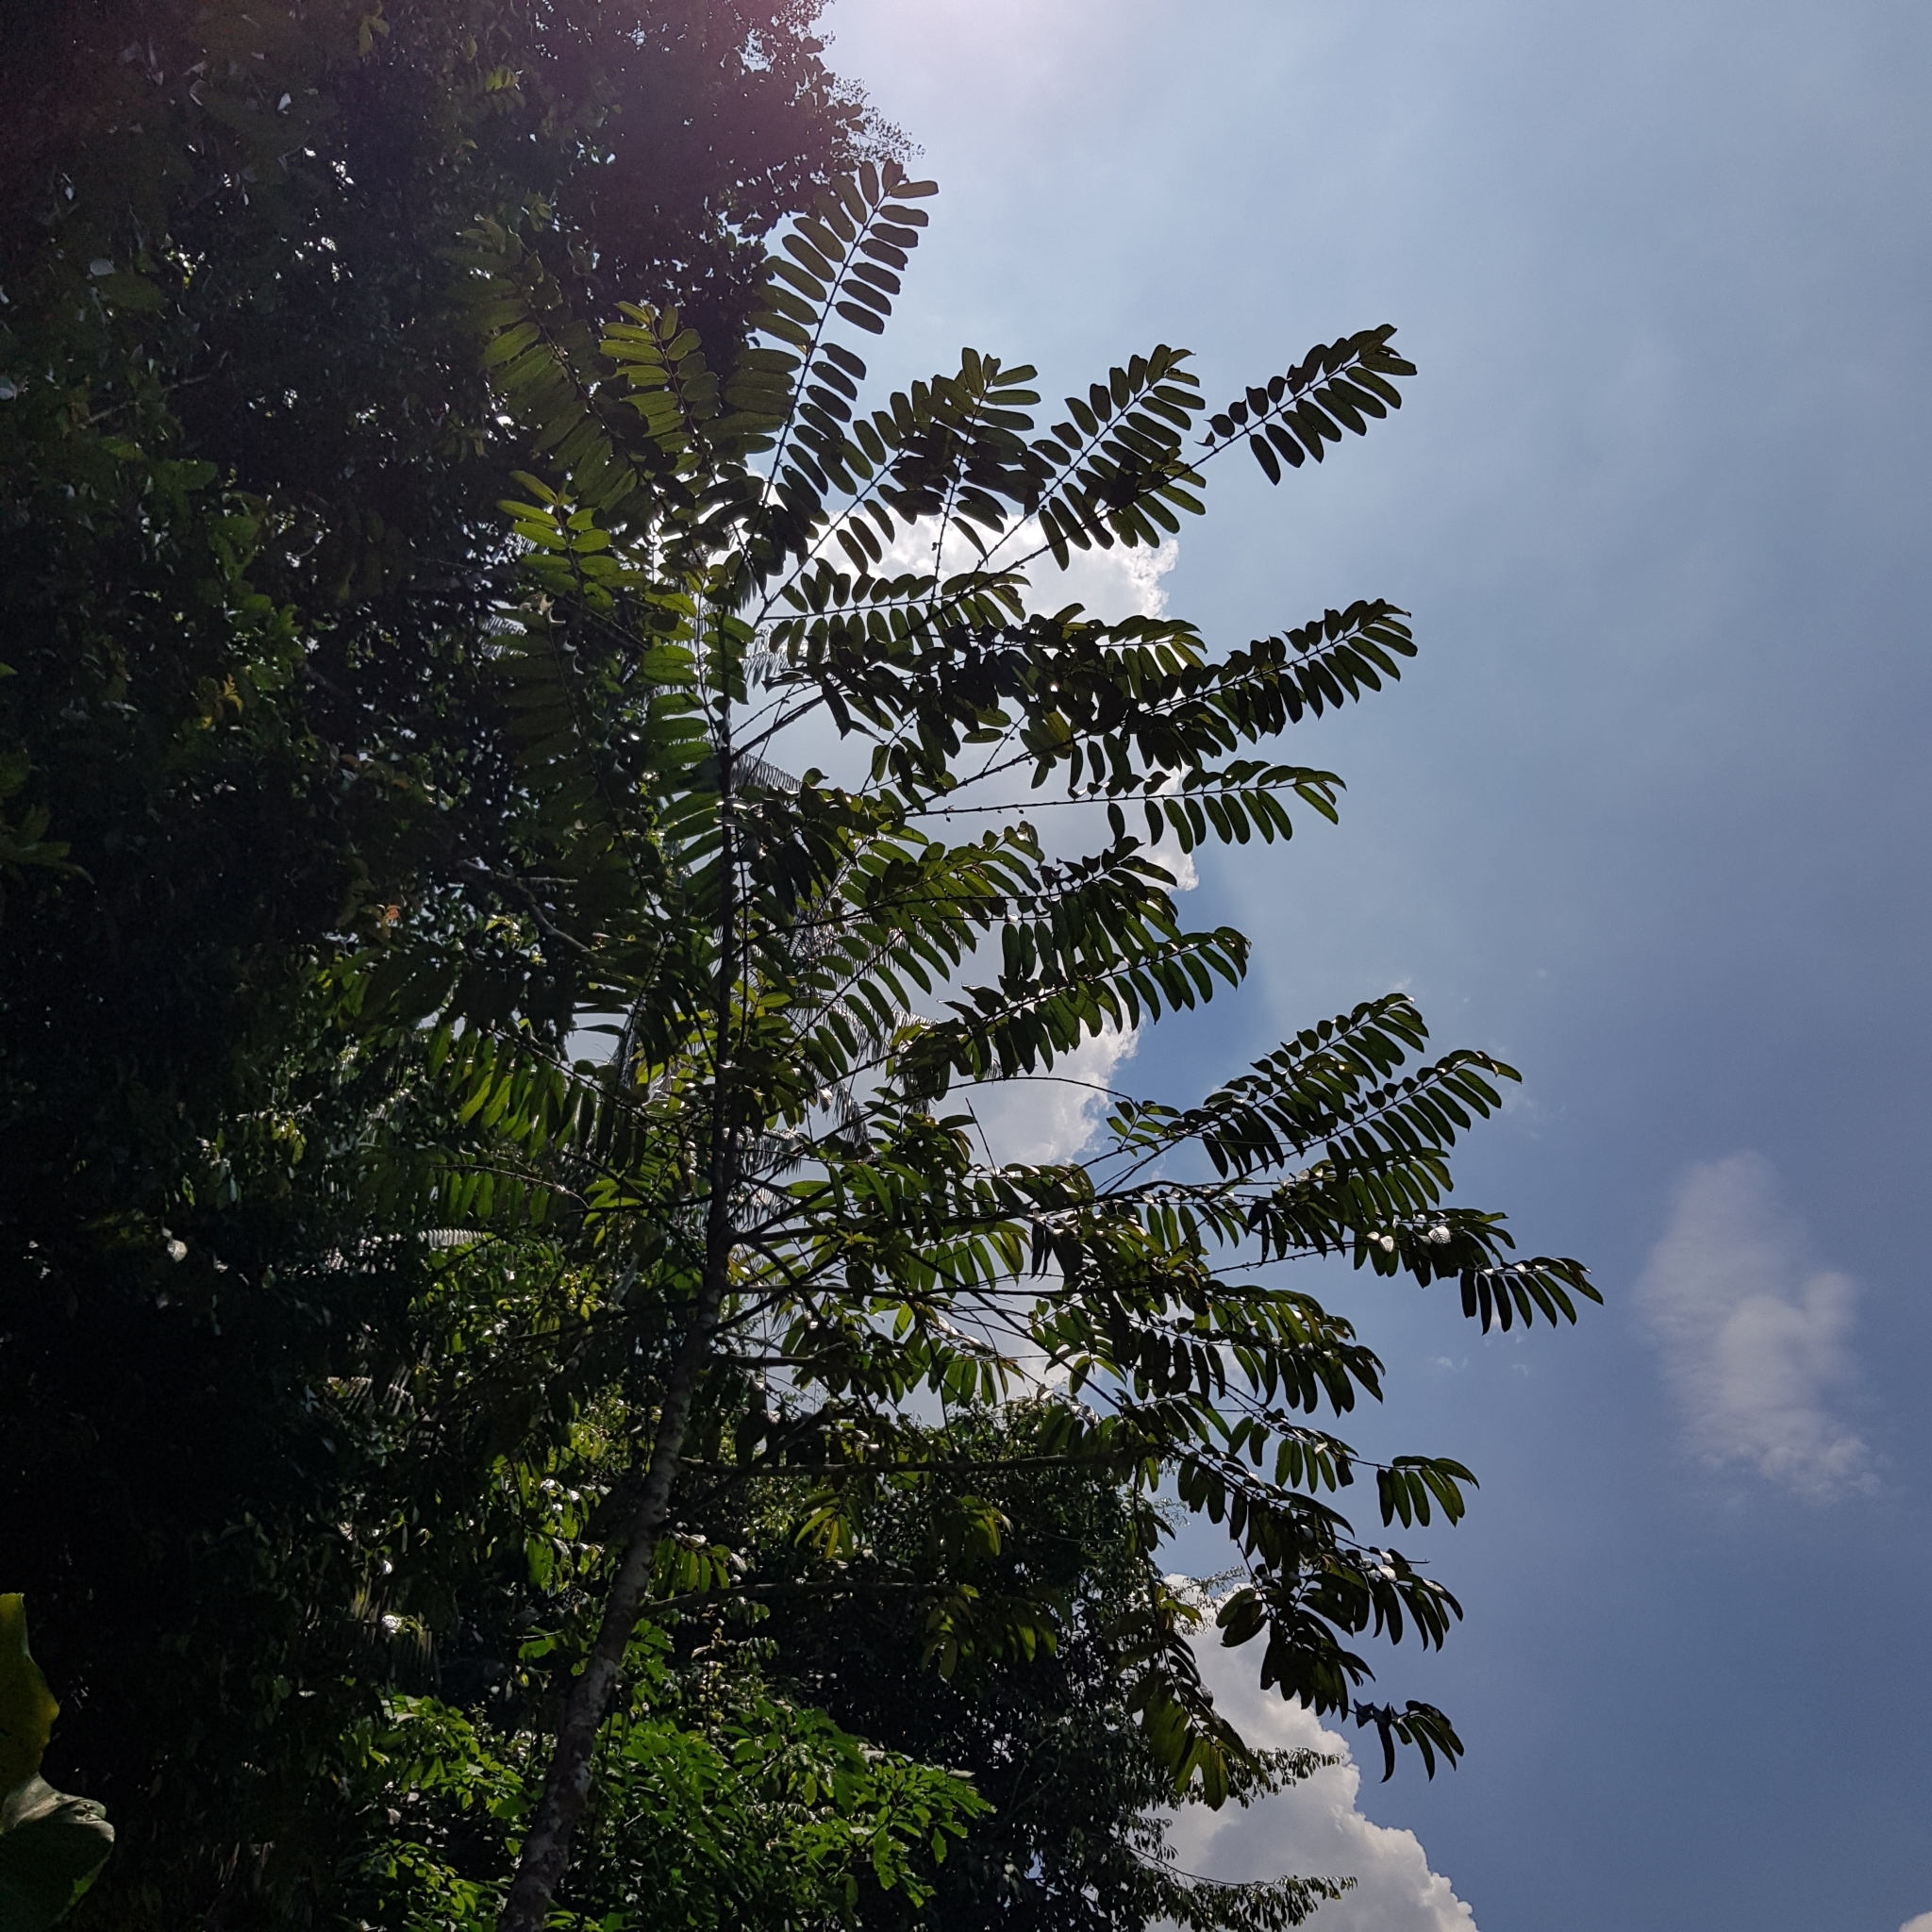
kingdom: Plantae
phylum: Tracheophyta
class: Magnoliopsida
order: Malpighiales
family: Rhizophoraceae
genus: Pellacalyx
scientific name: Pellacalyx axillaris
